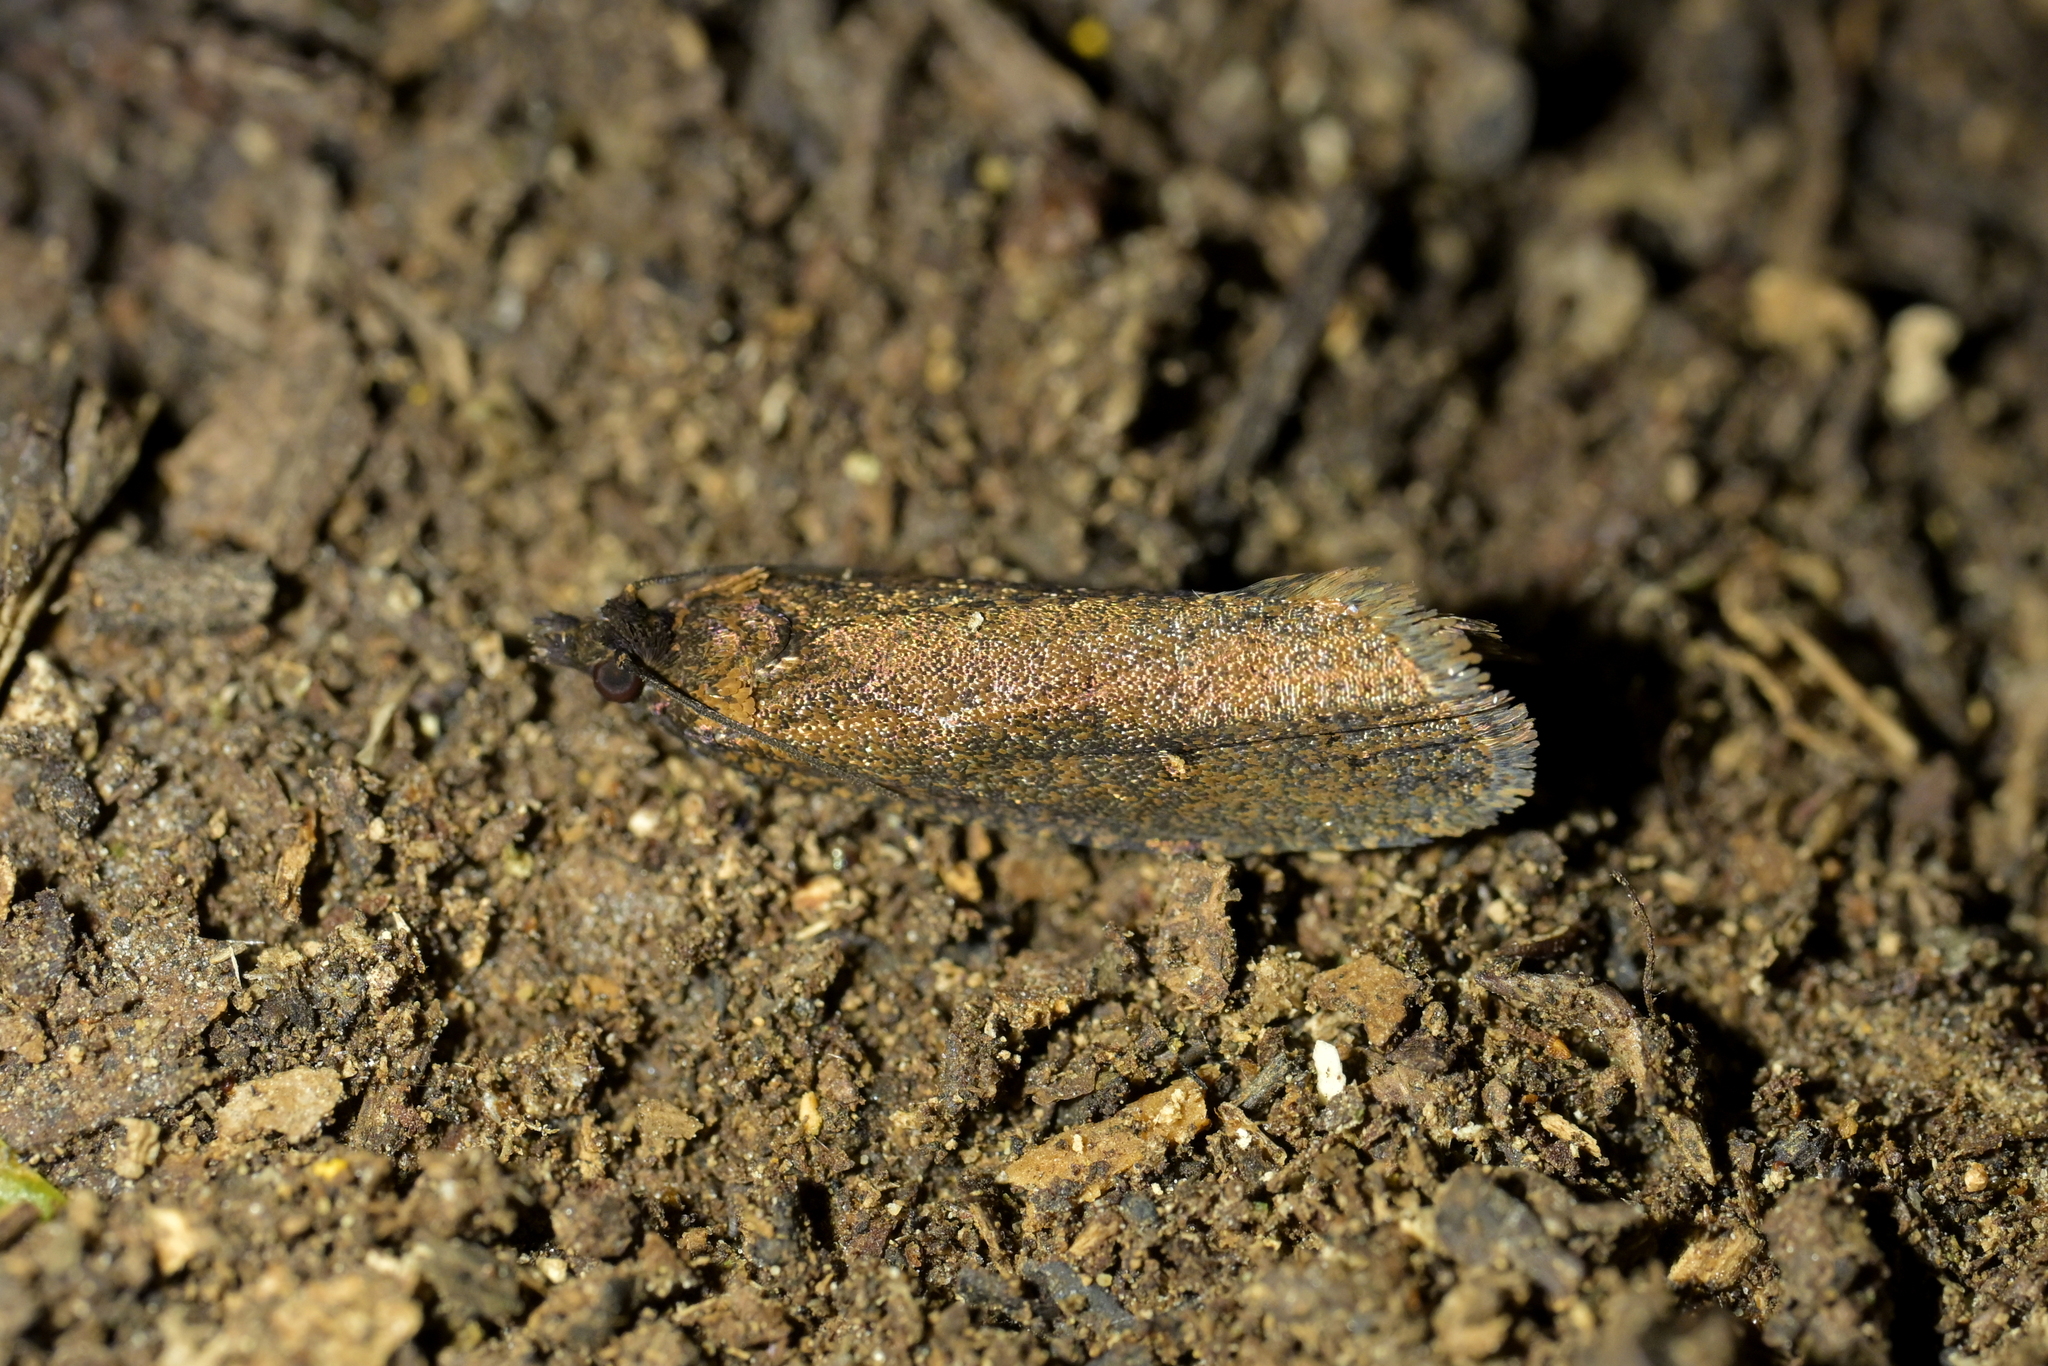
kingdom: Animalia
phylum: Arthropoda
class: Insecta
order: Lepidoptera
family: Tortricidae
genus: Cryptaspasma
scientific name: Cryptaspasma querula
